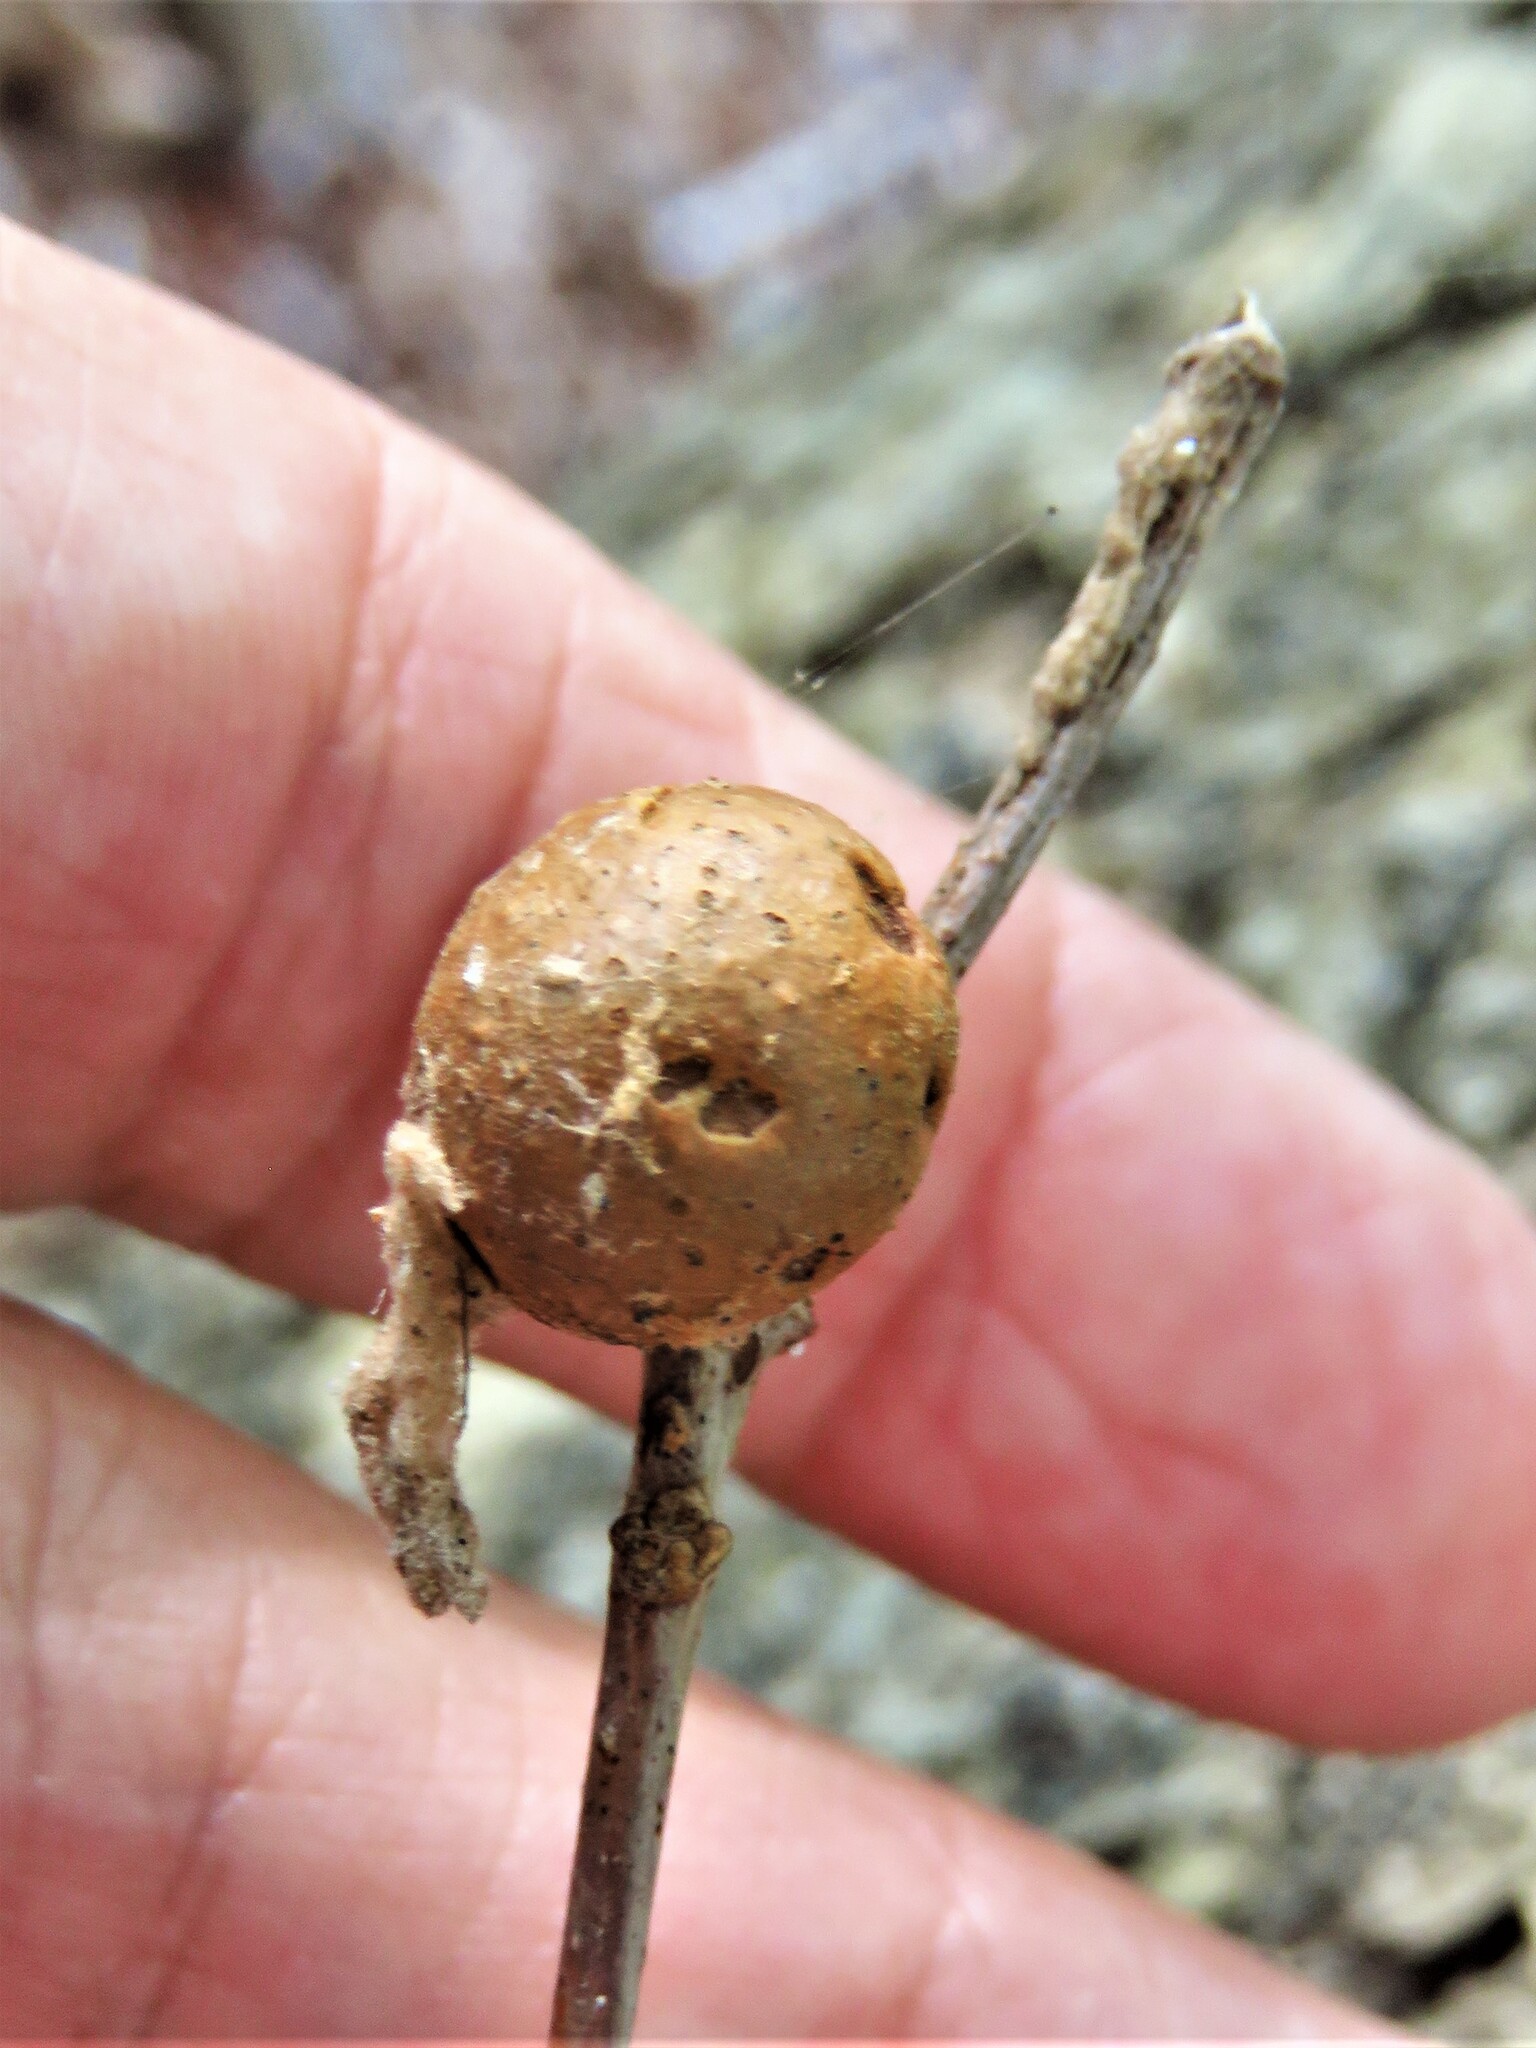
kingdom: Animalia
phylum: Arthropoda
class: Insecta
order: Hymenoptera
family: Cynipidae
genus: Disholcaspis
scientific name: Disholcaspis quercusglobulus
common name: Round bullet gall wasp
